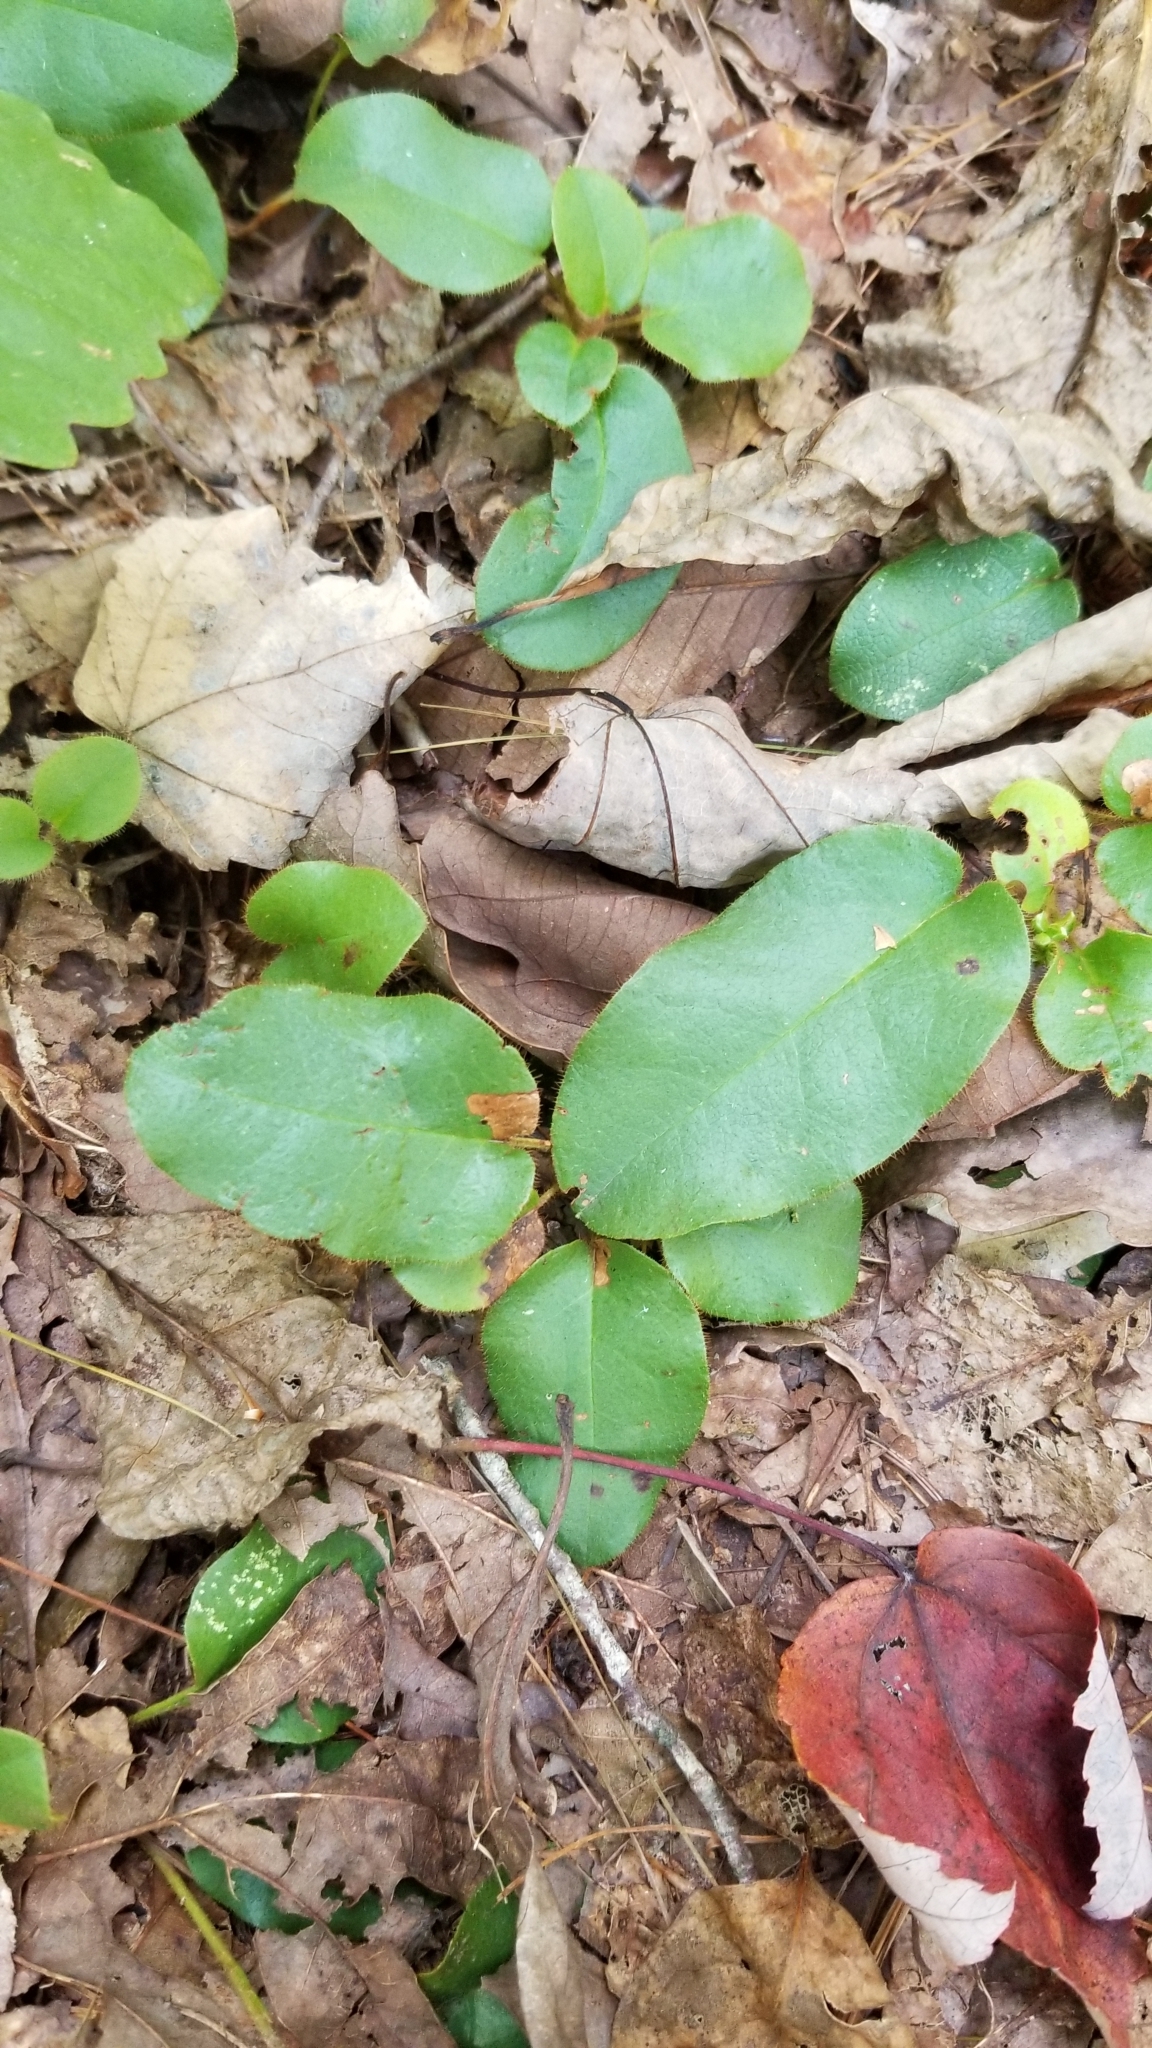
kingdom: Plantae
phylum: Tracheophyta
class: Magnoliopsida
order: Ericales
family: Ericaceae
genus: Epigaea
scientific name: Epigaea repens
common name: Gravelroot
